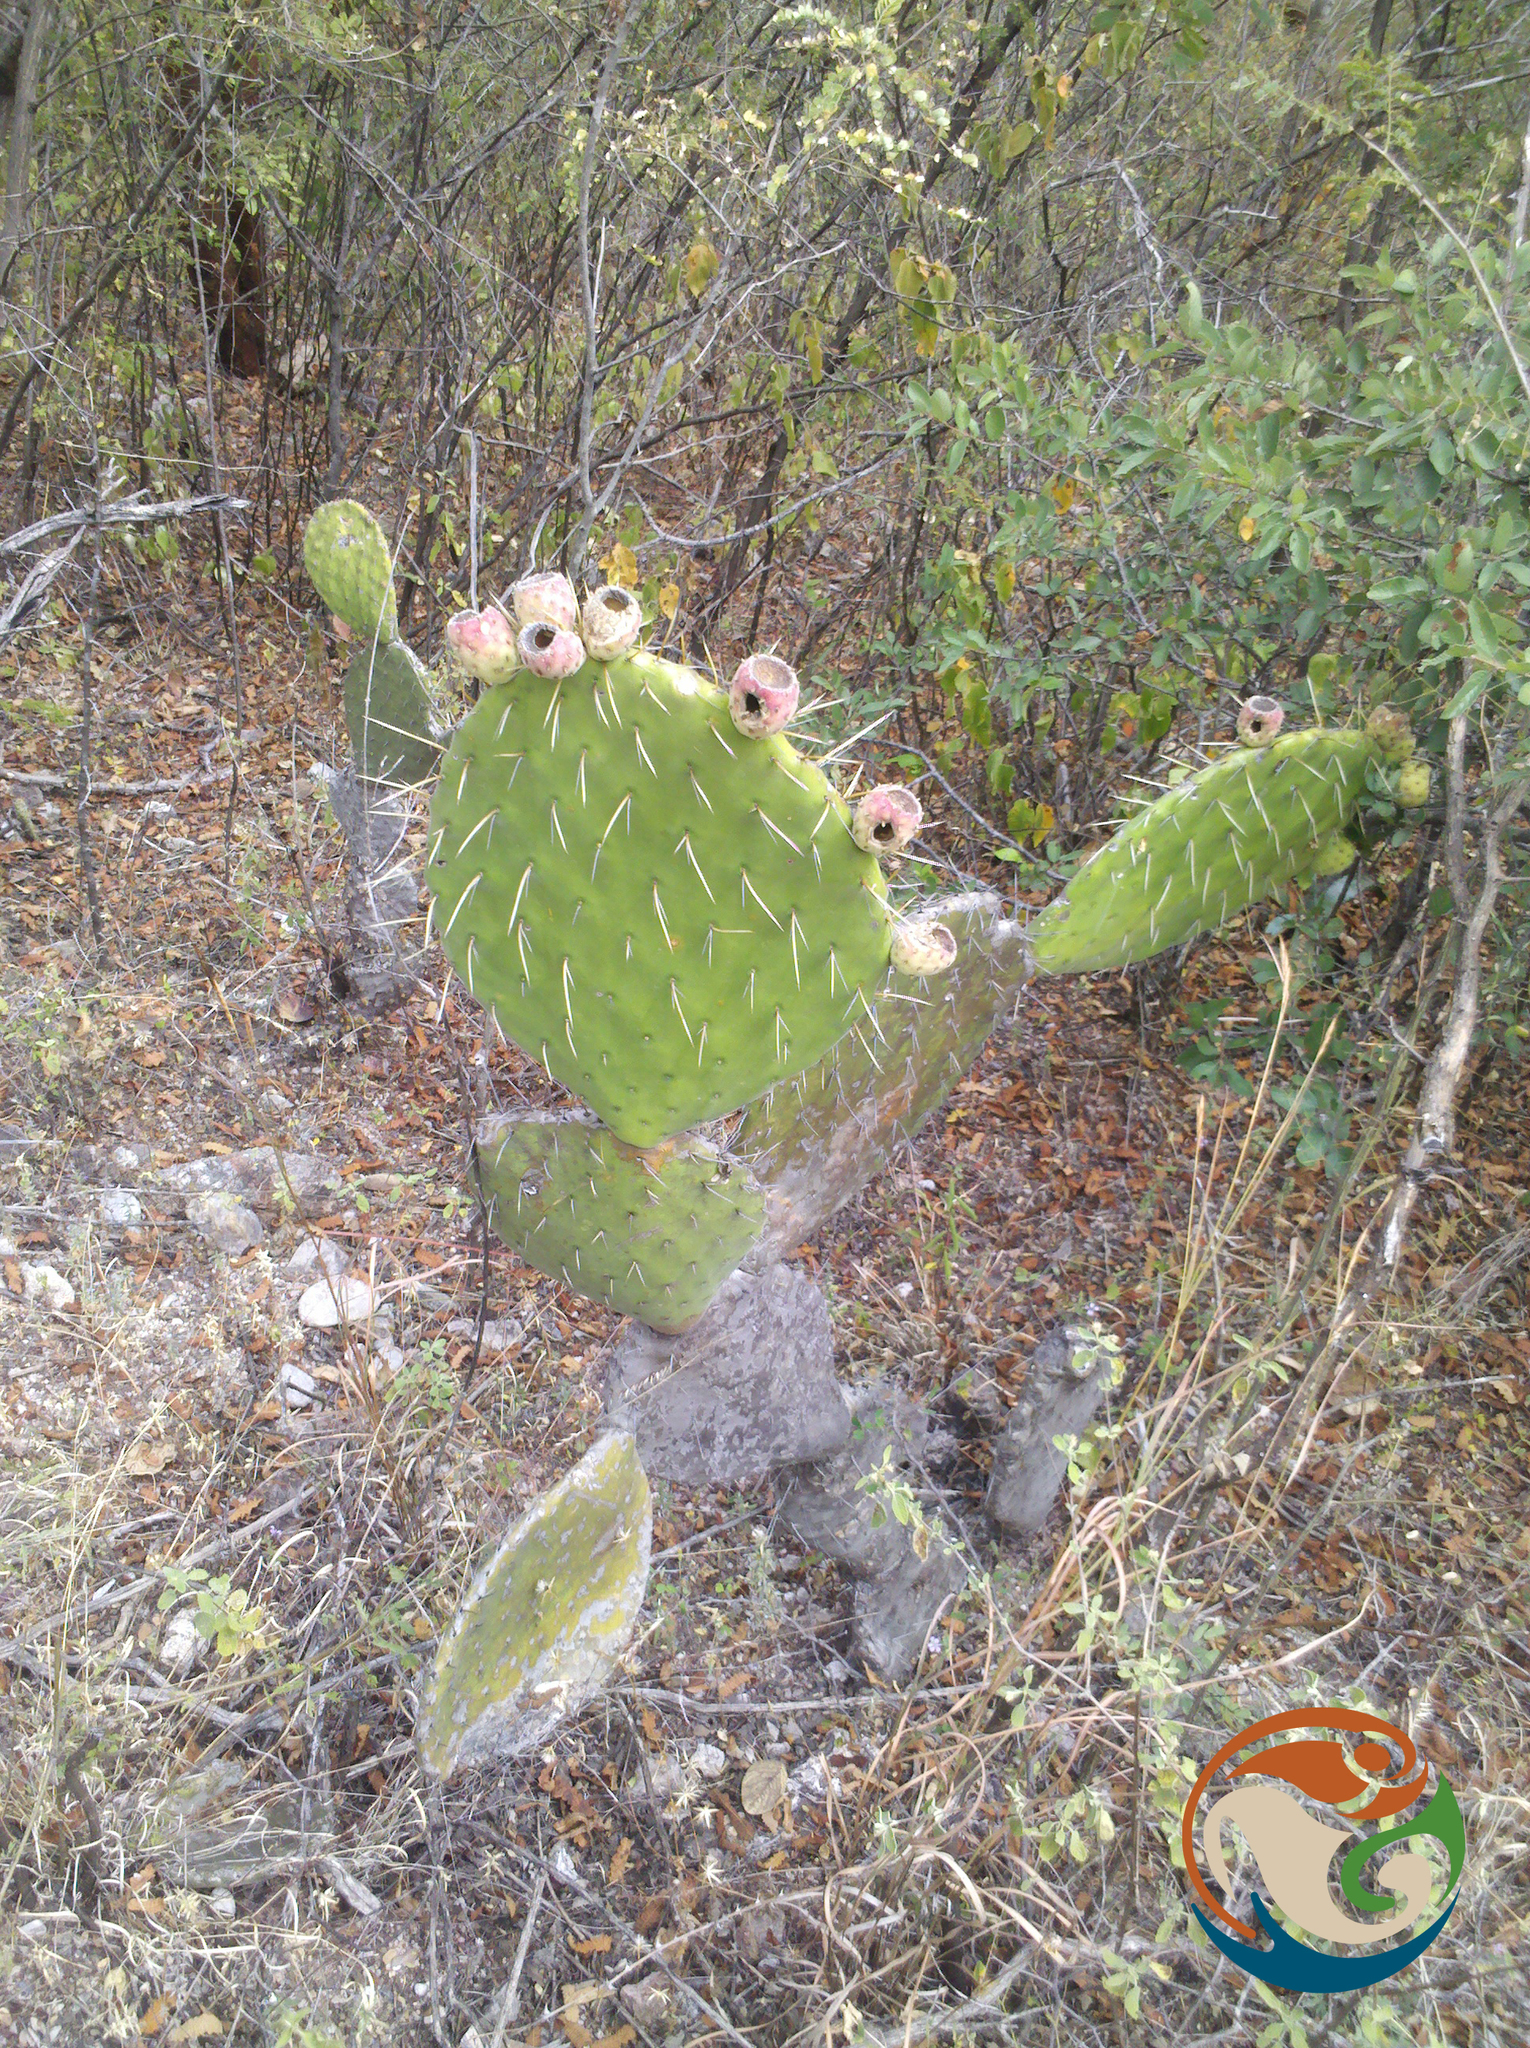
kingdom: Plantae
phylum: Tracheophyta
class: Magnoliopsida
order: Caryophyllales
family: Cactaceae
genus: Opuntia
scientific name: Opuntia lasiacantha
